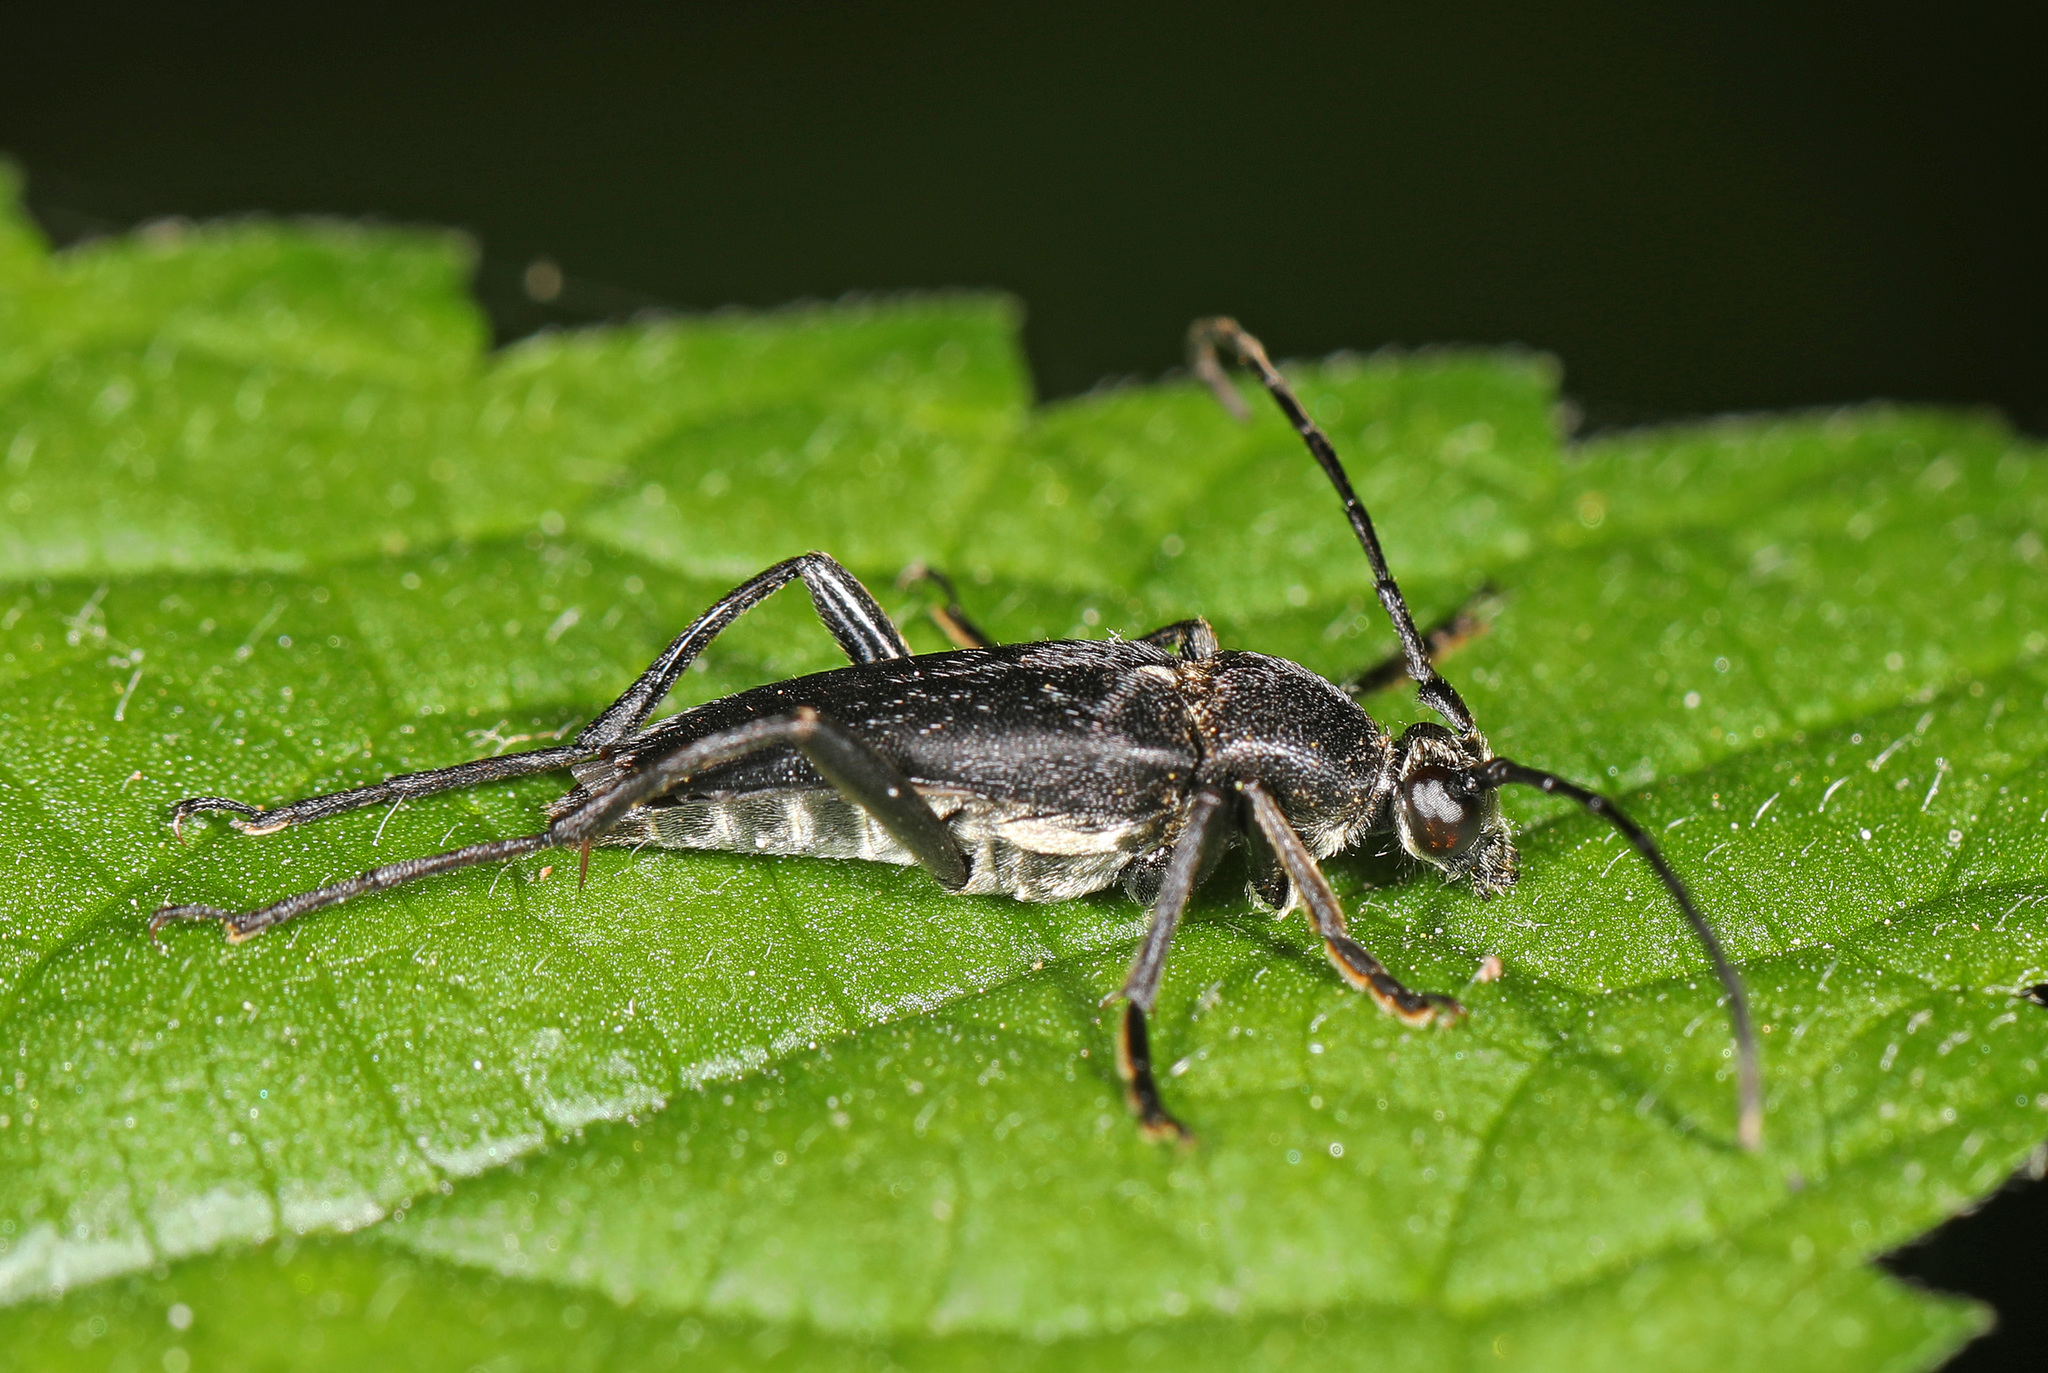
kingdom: Animalia
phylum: Arthropoda
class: Insecta
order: Coleoptera
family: Cerambycidae
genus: Typocerus
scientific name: Typocerus lugubris
